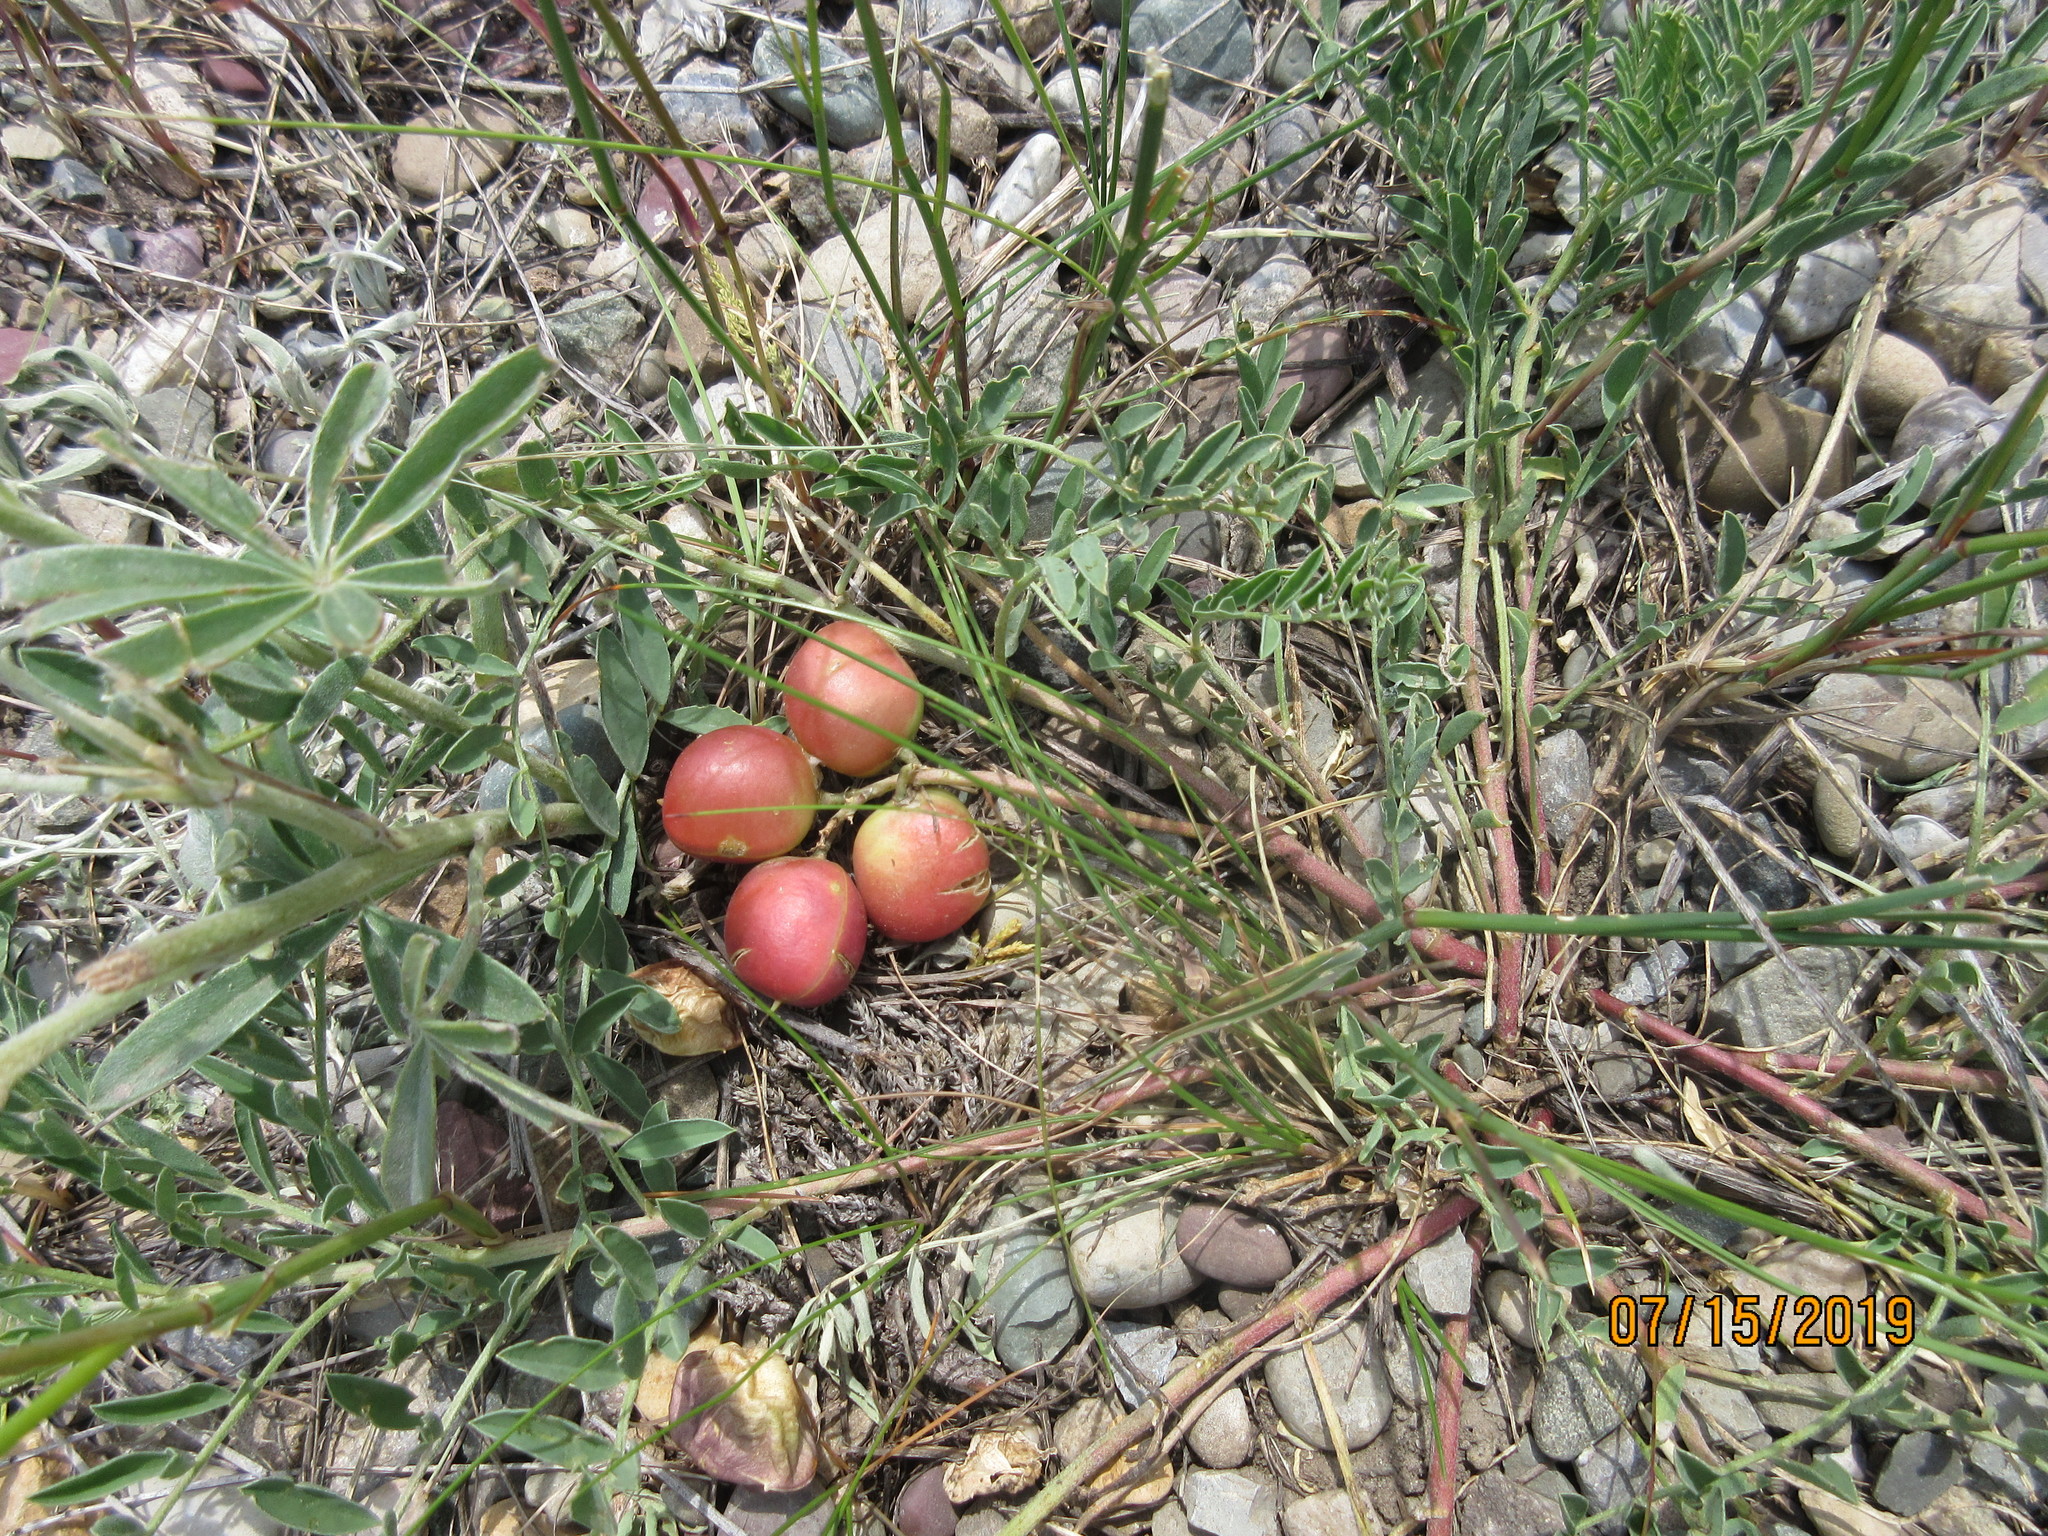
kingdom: Plantae
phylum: Tracheophyta
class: Magnoliopsida
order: Fabales
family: Fabaceae
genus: Astragalus
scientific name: Astragalus crassicarpus
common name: Ground-plum milk-vetch
